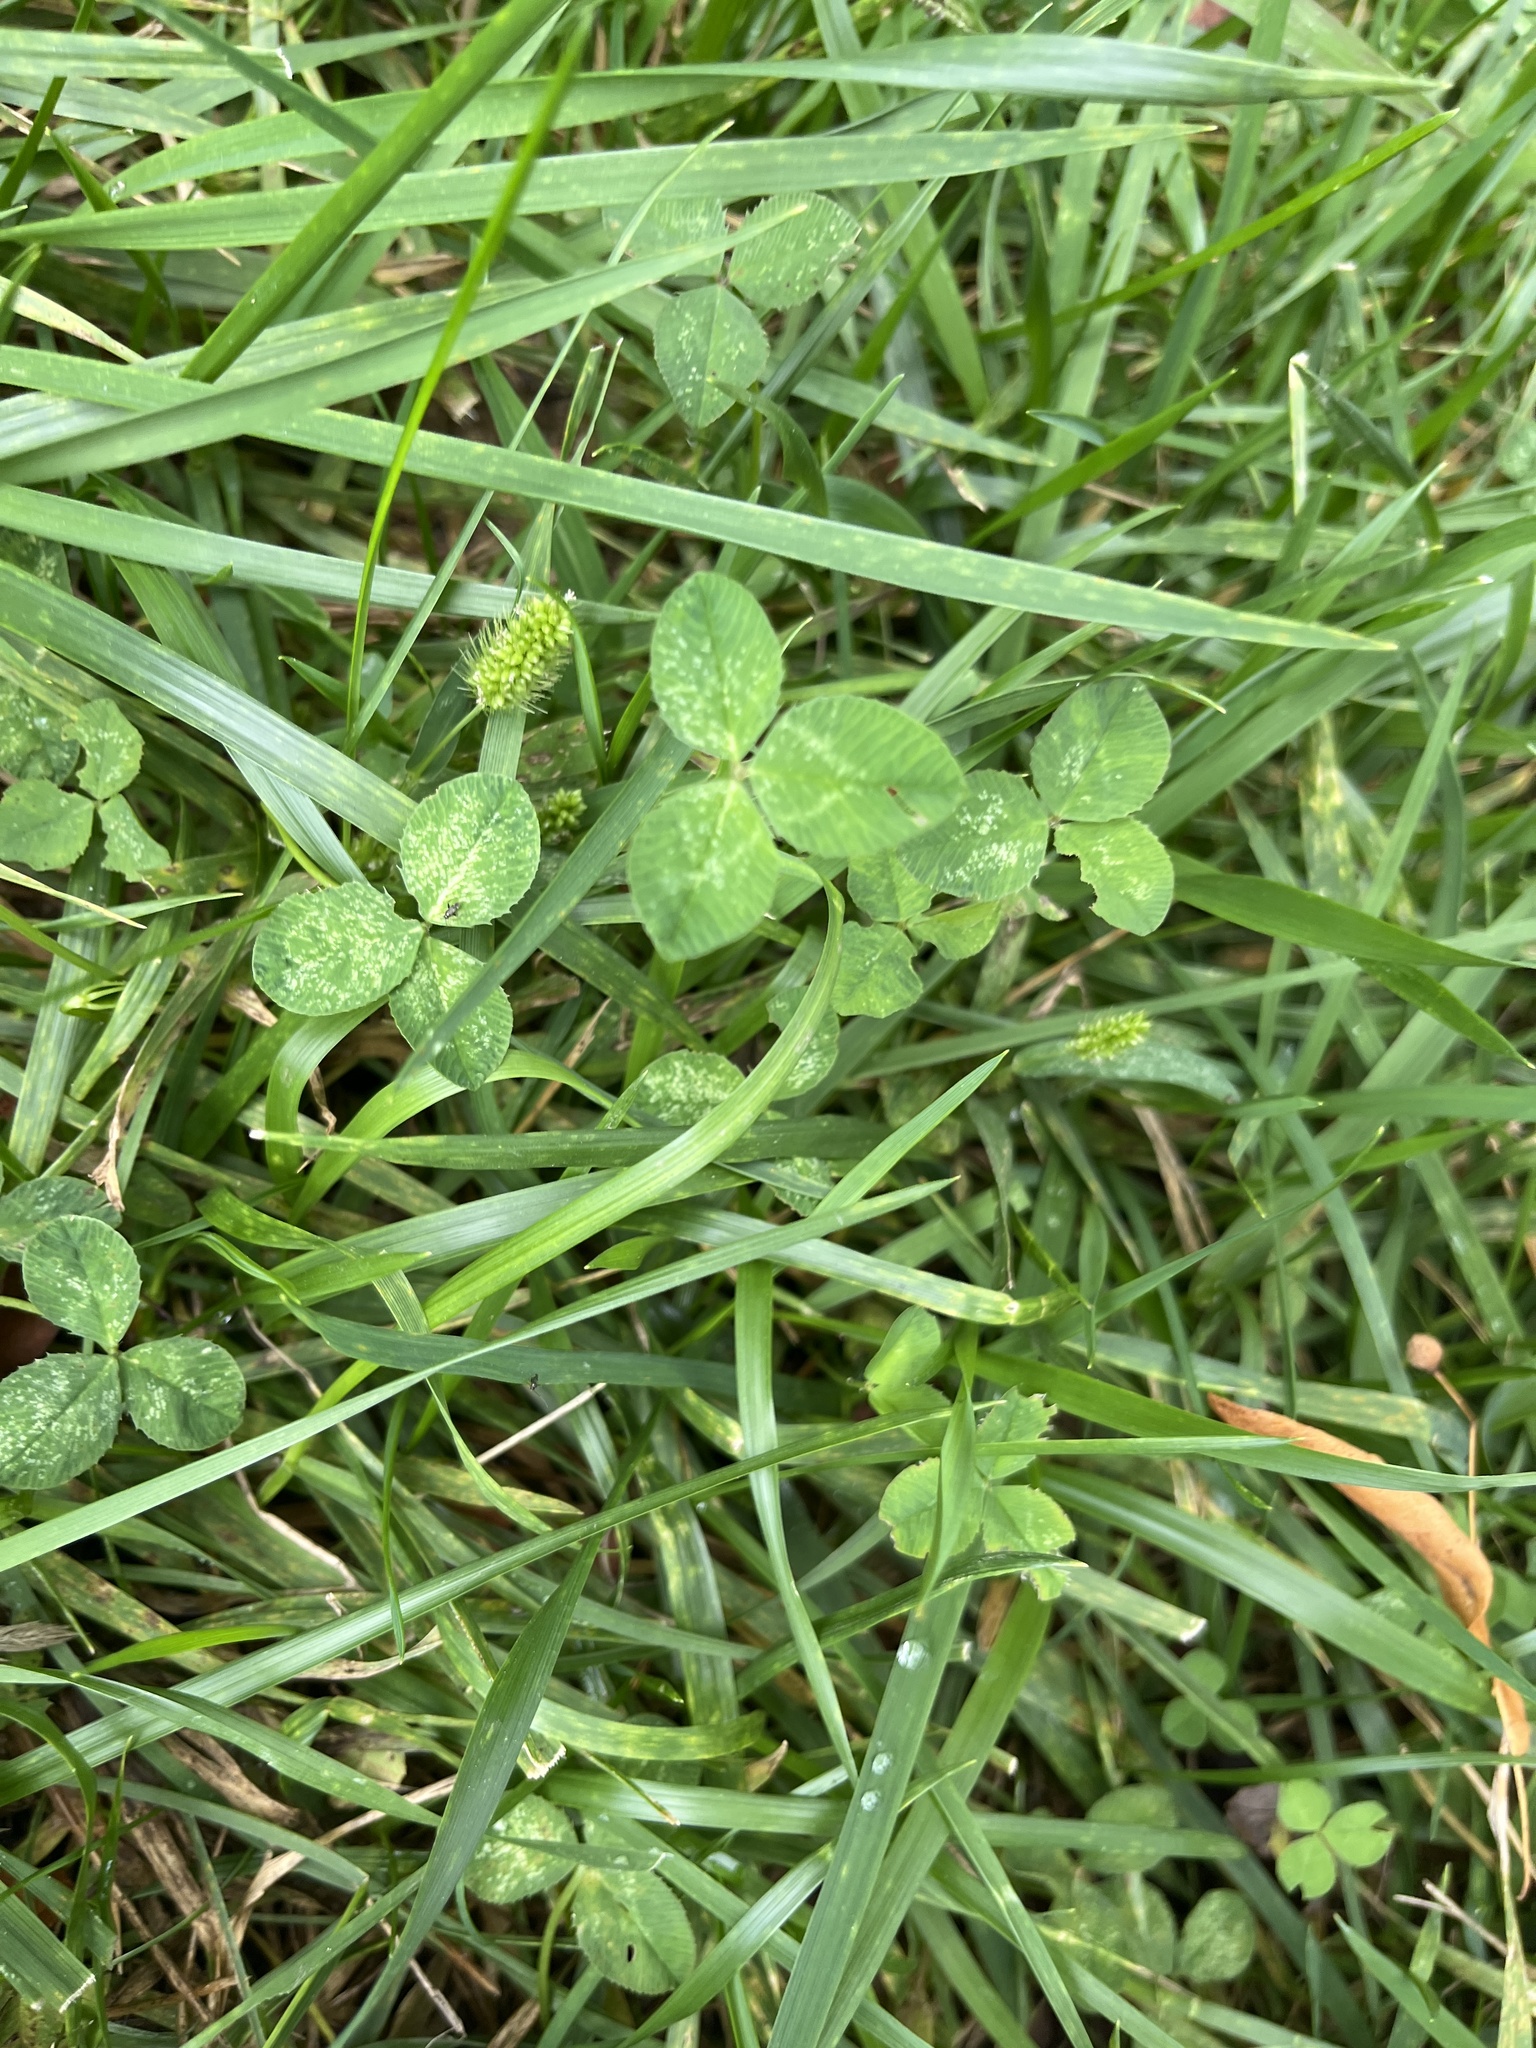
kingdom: Plantae
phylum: Tracheophyta
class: Magnoliopsida
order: Fabales
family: Fabaceae
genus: Trifolium
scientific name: Trifolium repens
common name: White clover
